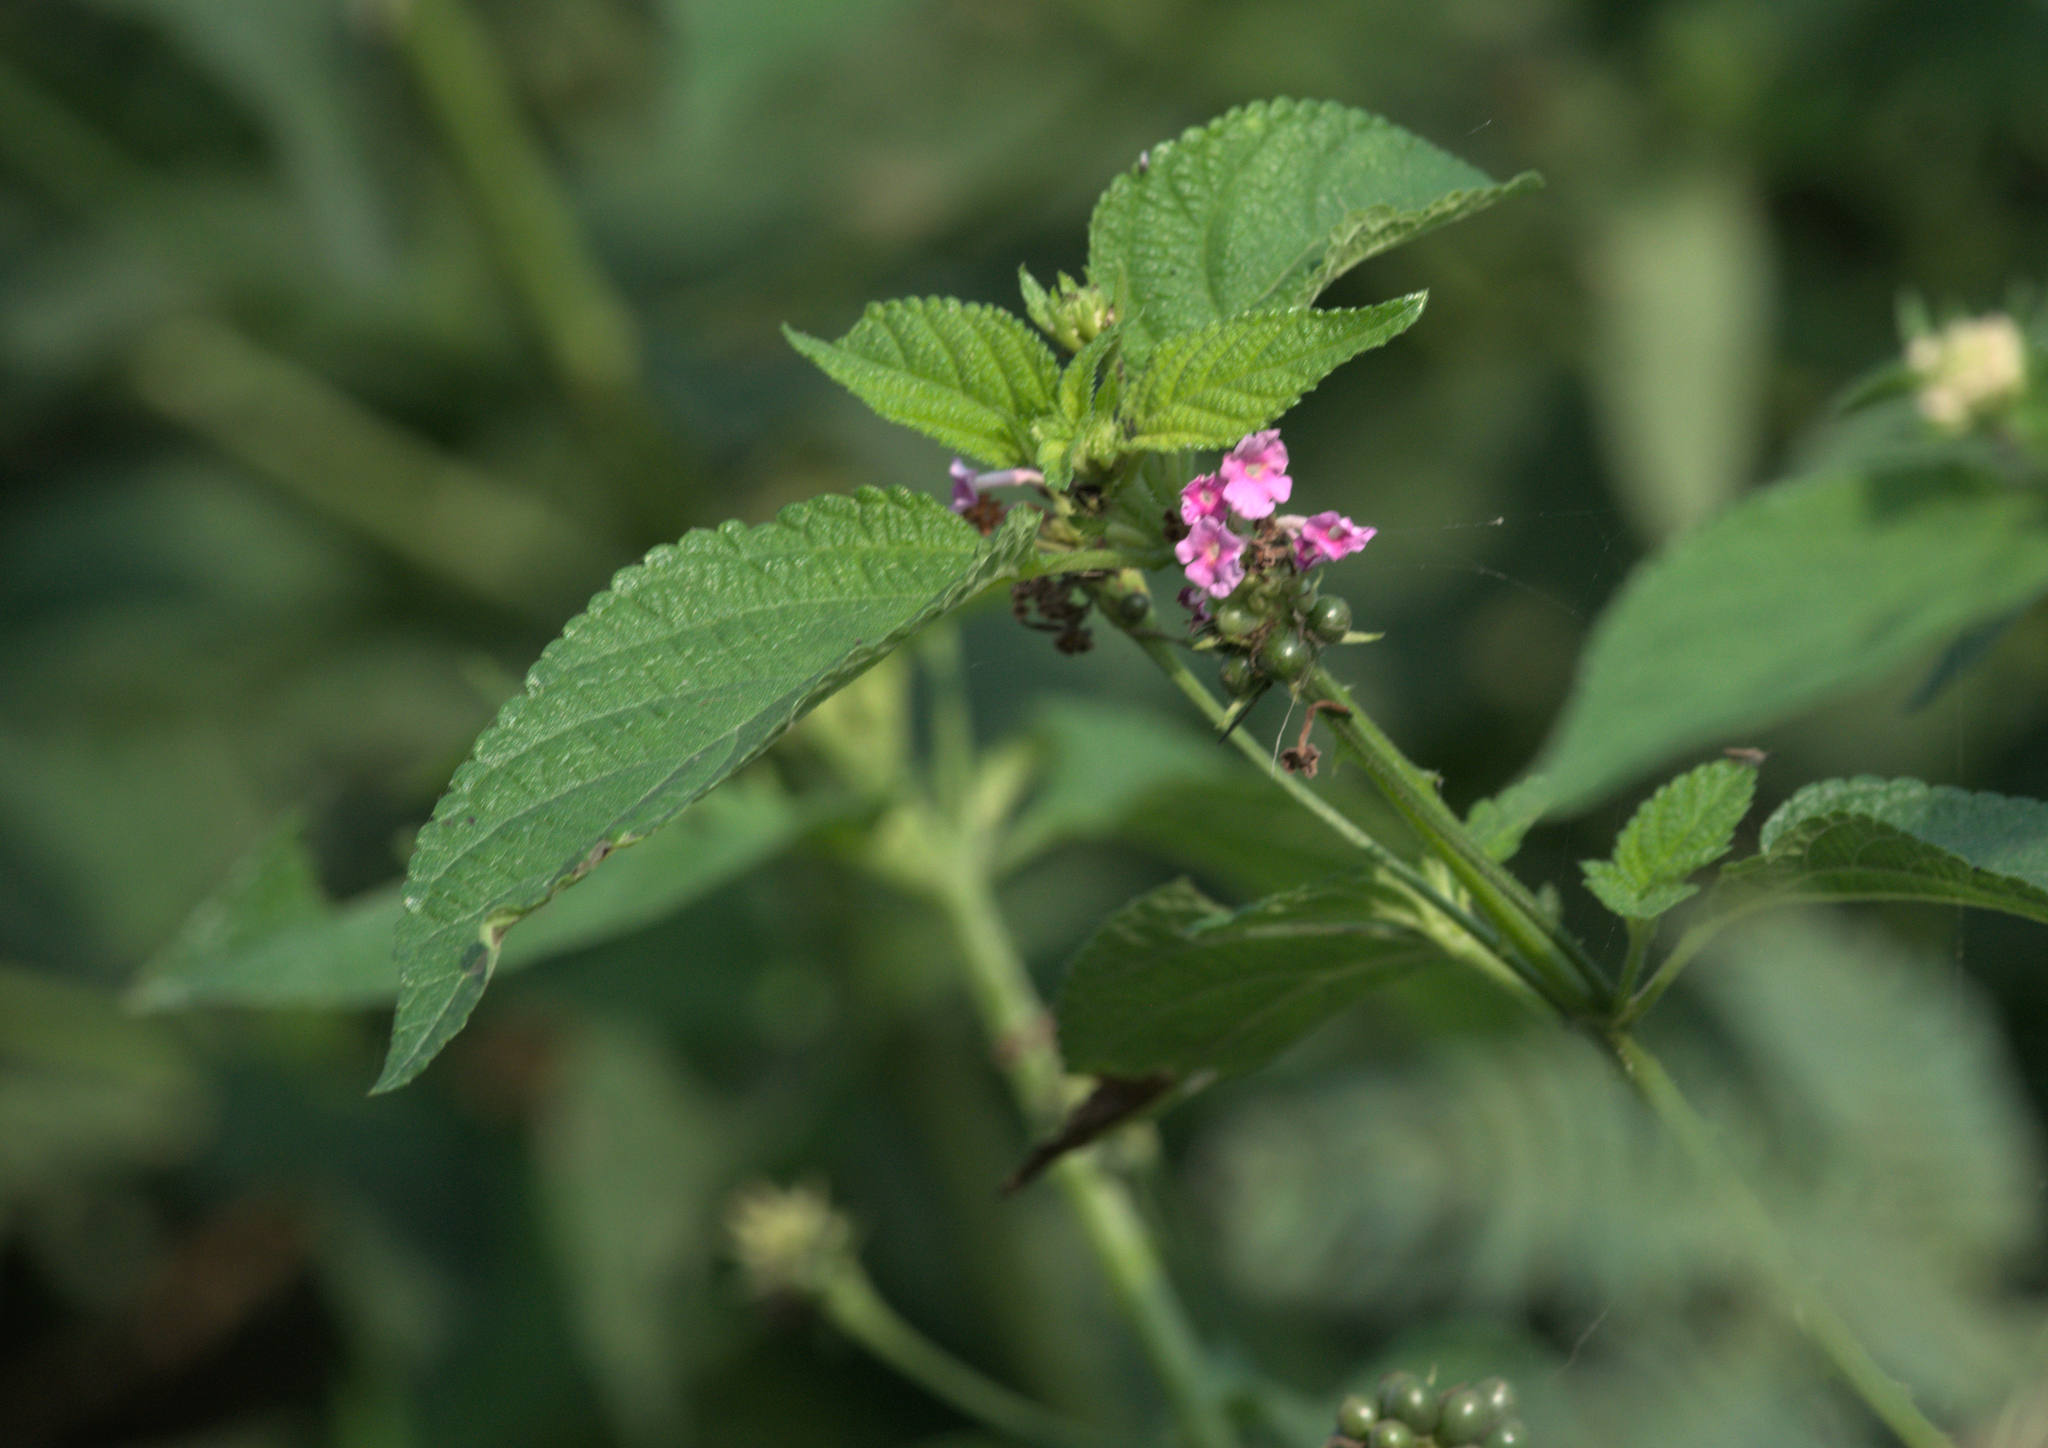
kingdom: Plantae
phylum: Tracheophyta
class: Magnoliopsida
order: Lamiales
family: Verbenaceae
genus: Lantana
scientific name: Lantana camara
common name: Lantana
